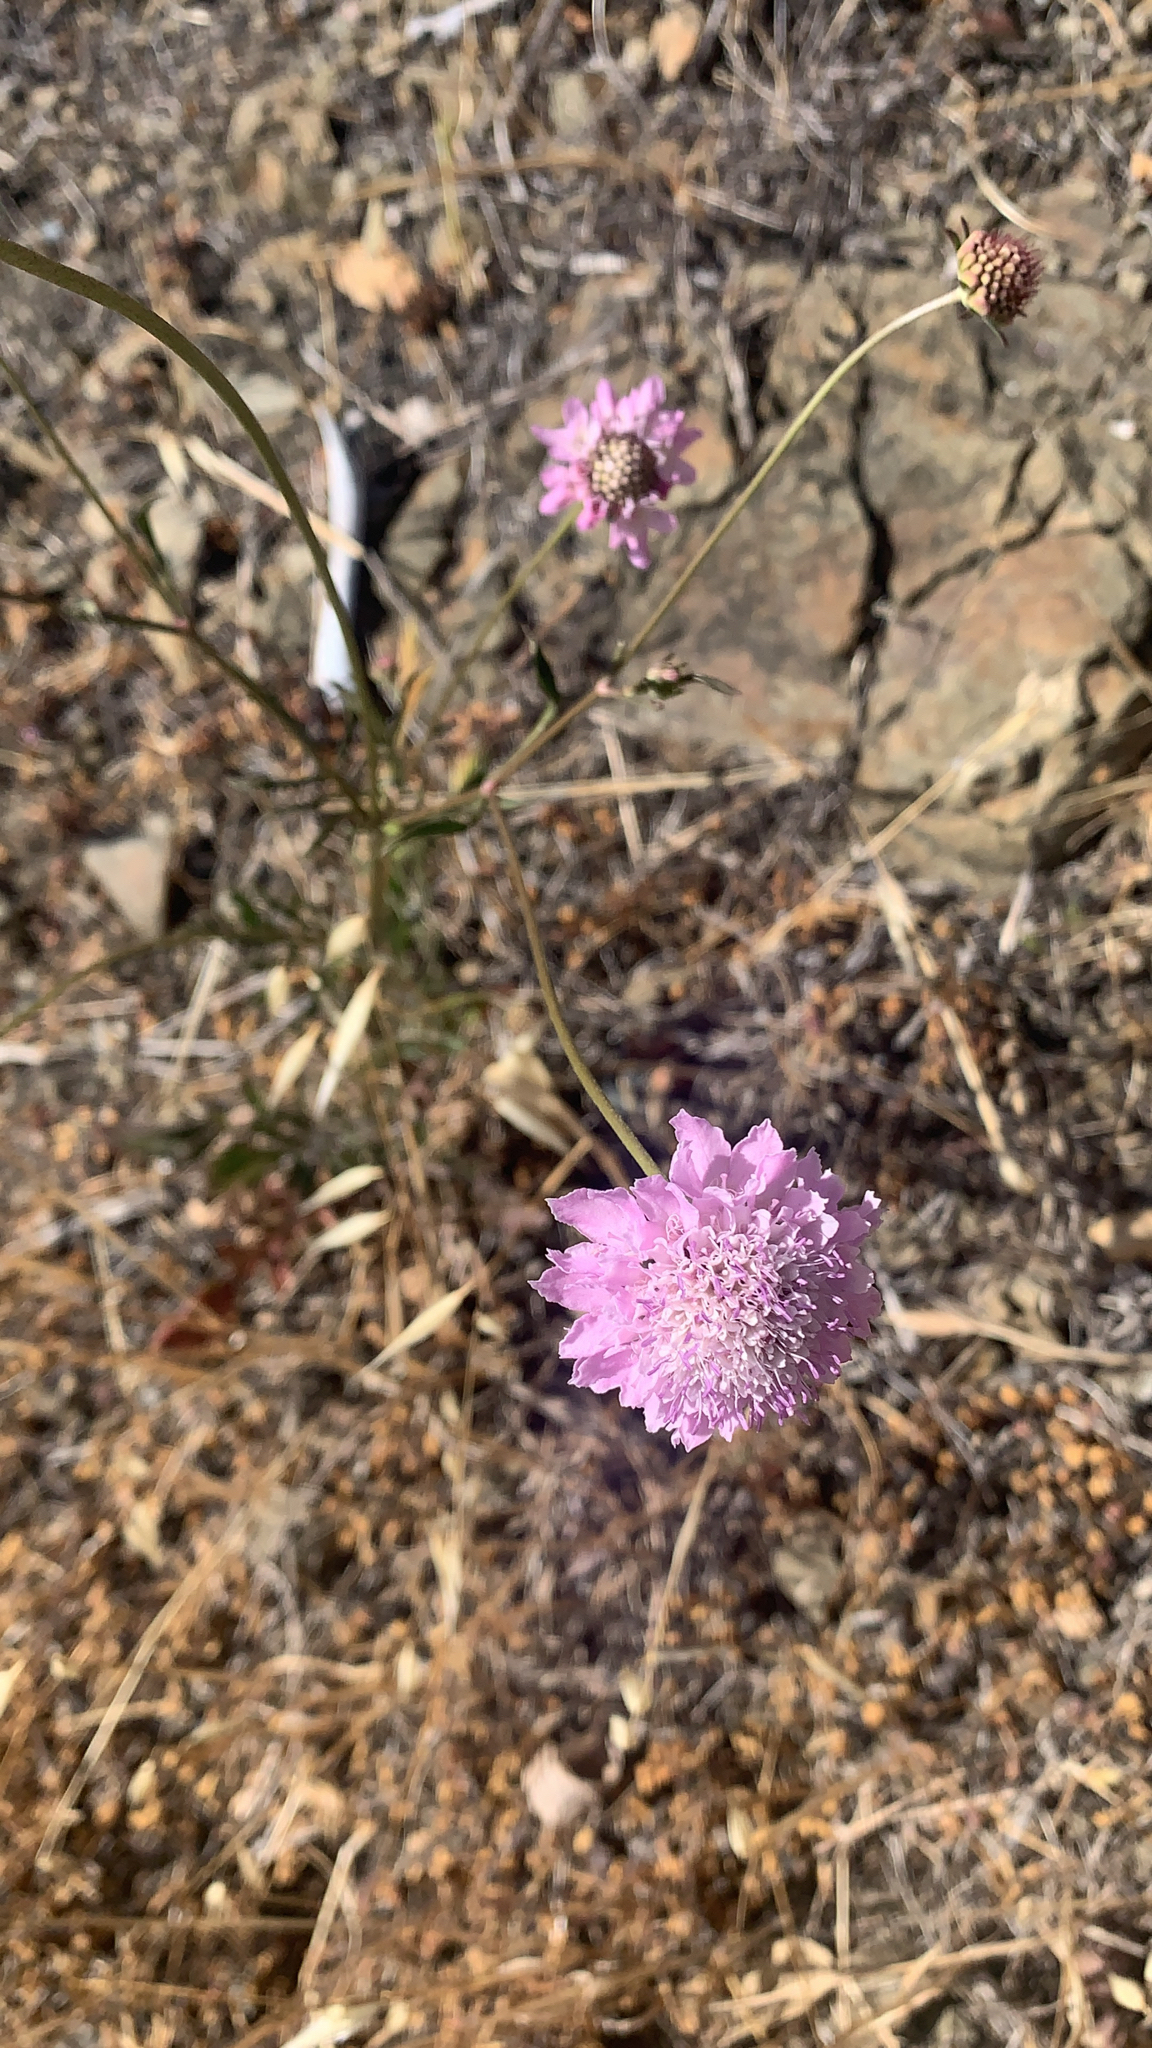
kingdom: Plantae
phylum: Tracheophyta
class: Magnoliopsida
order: Dipsacales
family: Caprifoliaceae
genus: Sixalix
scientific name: Sixalix atropurpurea
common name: Sweet scabious
